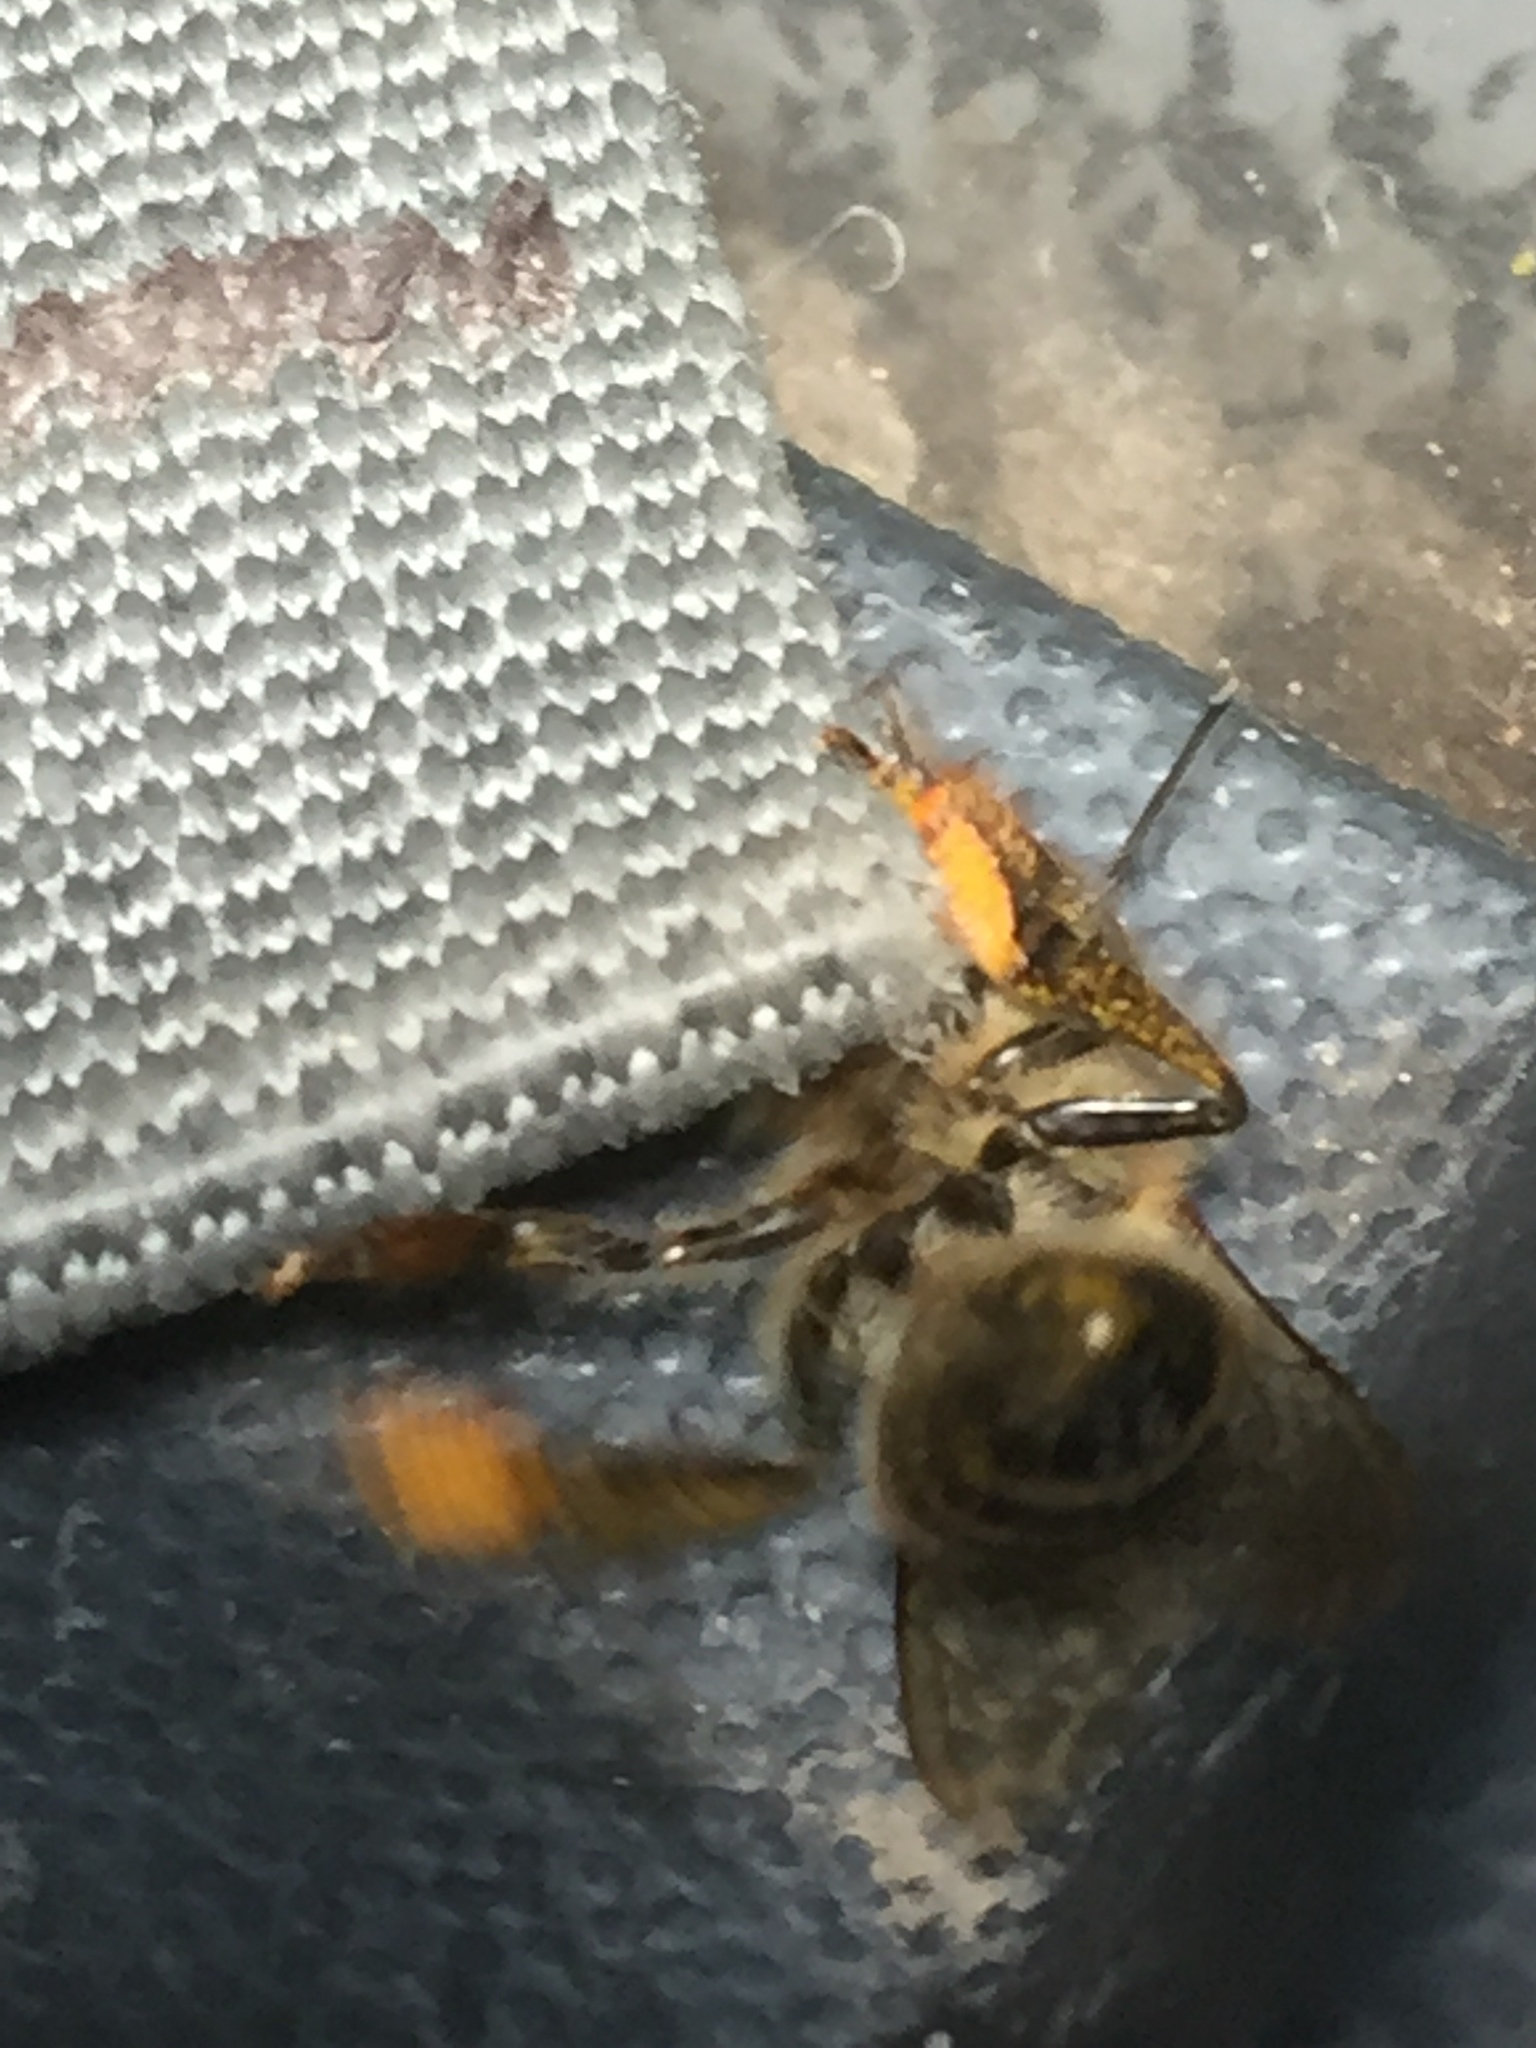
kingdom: Animalia
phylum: Arthropoda
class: Insecta
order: Hymenoptera
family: Apidae
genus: Apis
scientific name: Apis mellifera
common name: Honey bee
